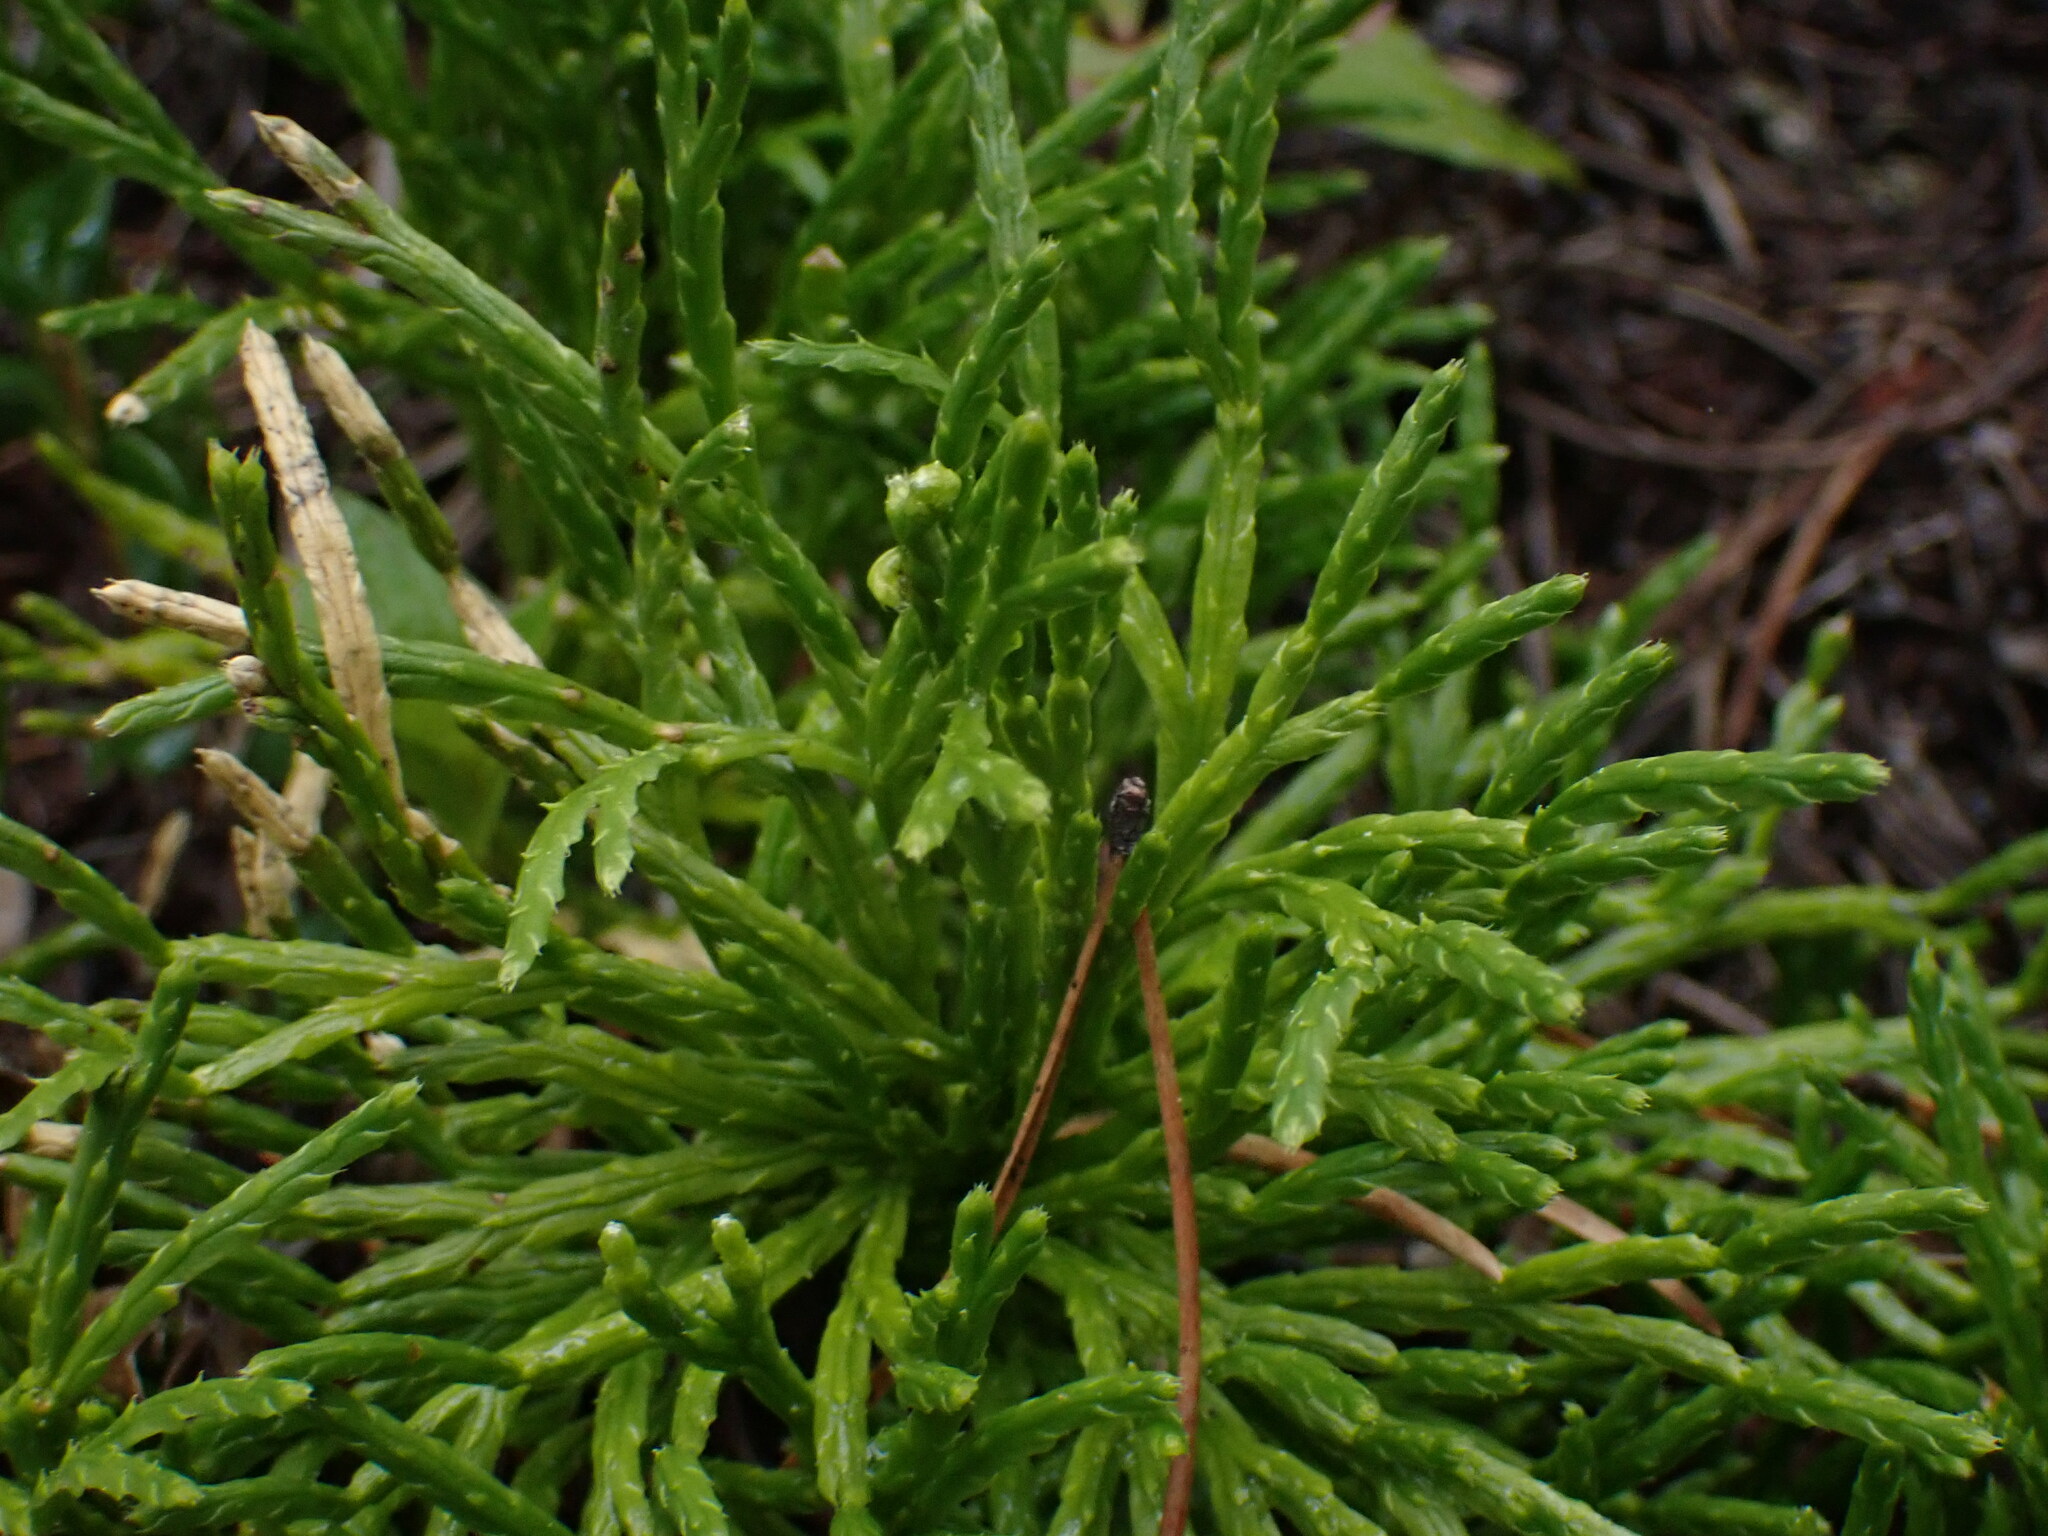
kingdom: Plantae
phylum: Tracheophyta
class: Lycopodiopsida
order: Lycopodiales
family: Lycopodiaceae
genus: Diphasiastrum
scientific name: Diphasiastrum complanatum
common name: Northern running-pine
